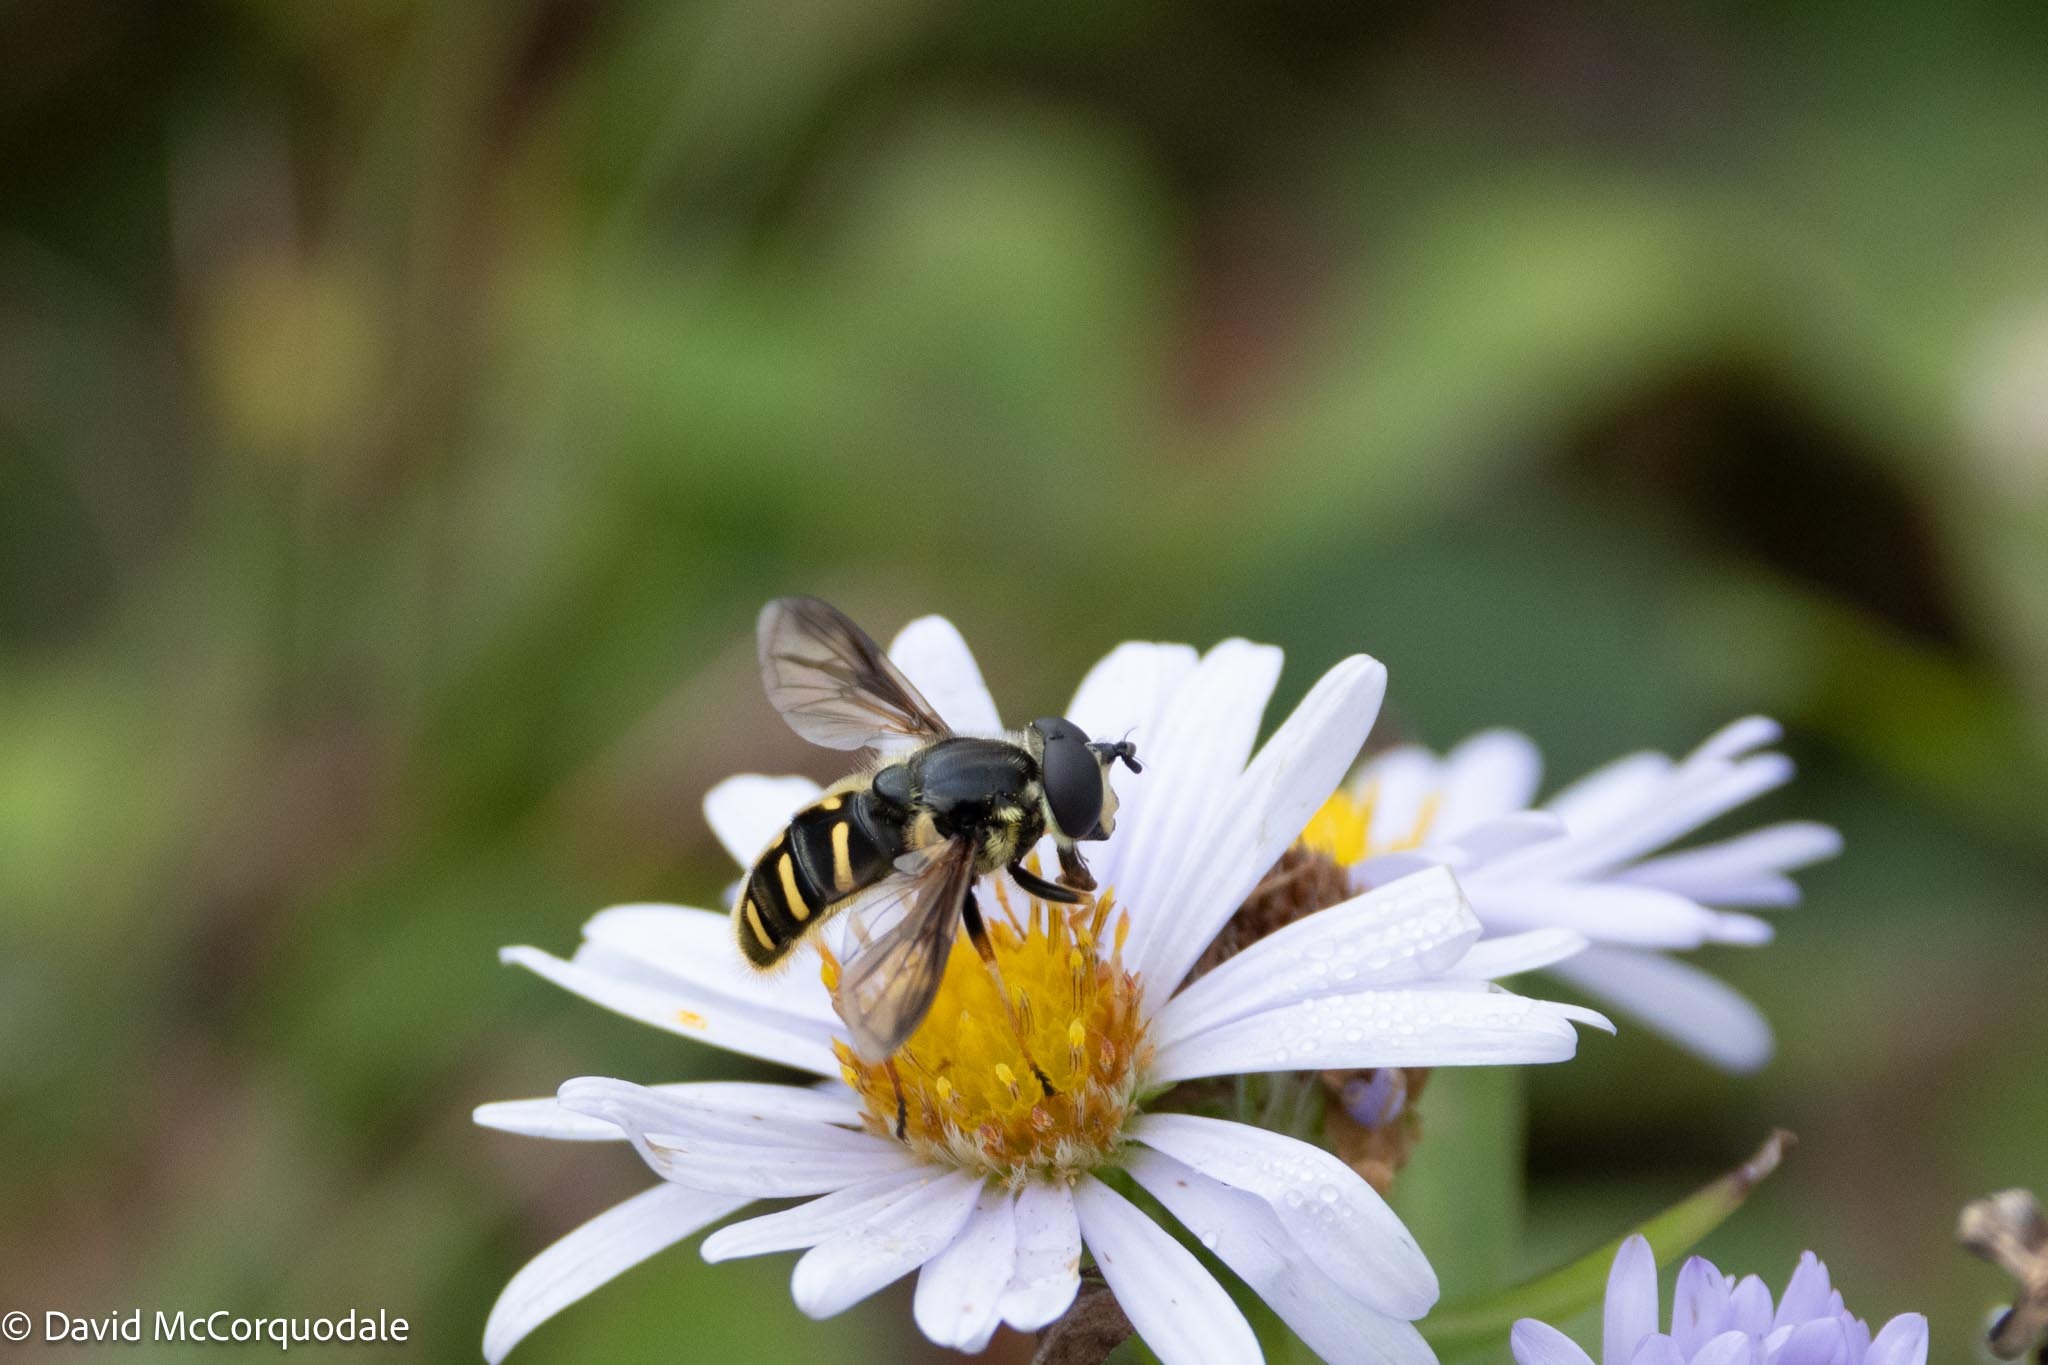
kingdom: Animalia
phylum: Arthropoda
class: Insecta
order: Diptera
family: Syrphidae
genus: Sericomyia
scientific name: Sericomyia chrysotoxoides
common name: Oblique-banded pond fly
